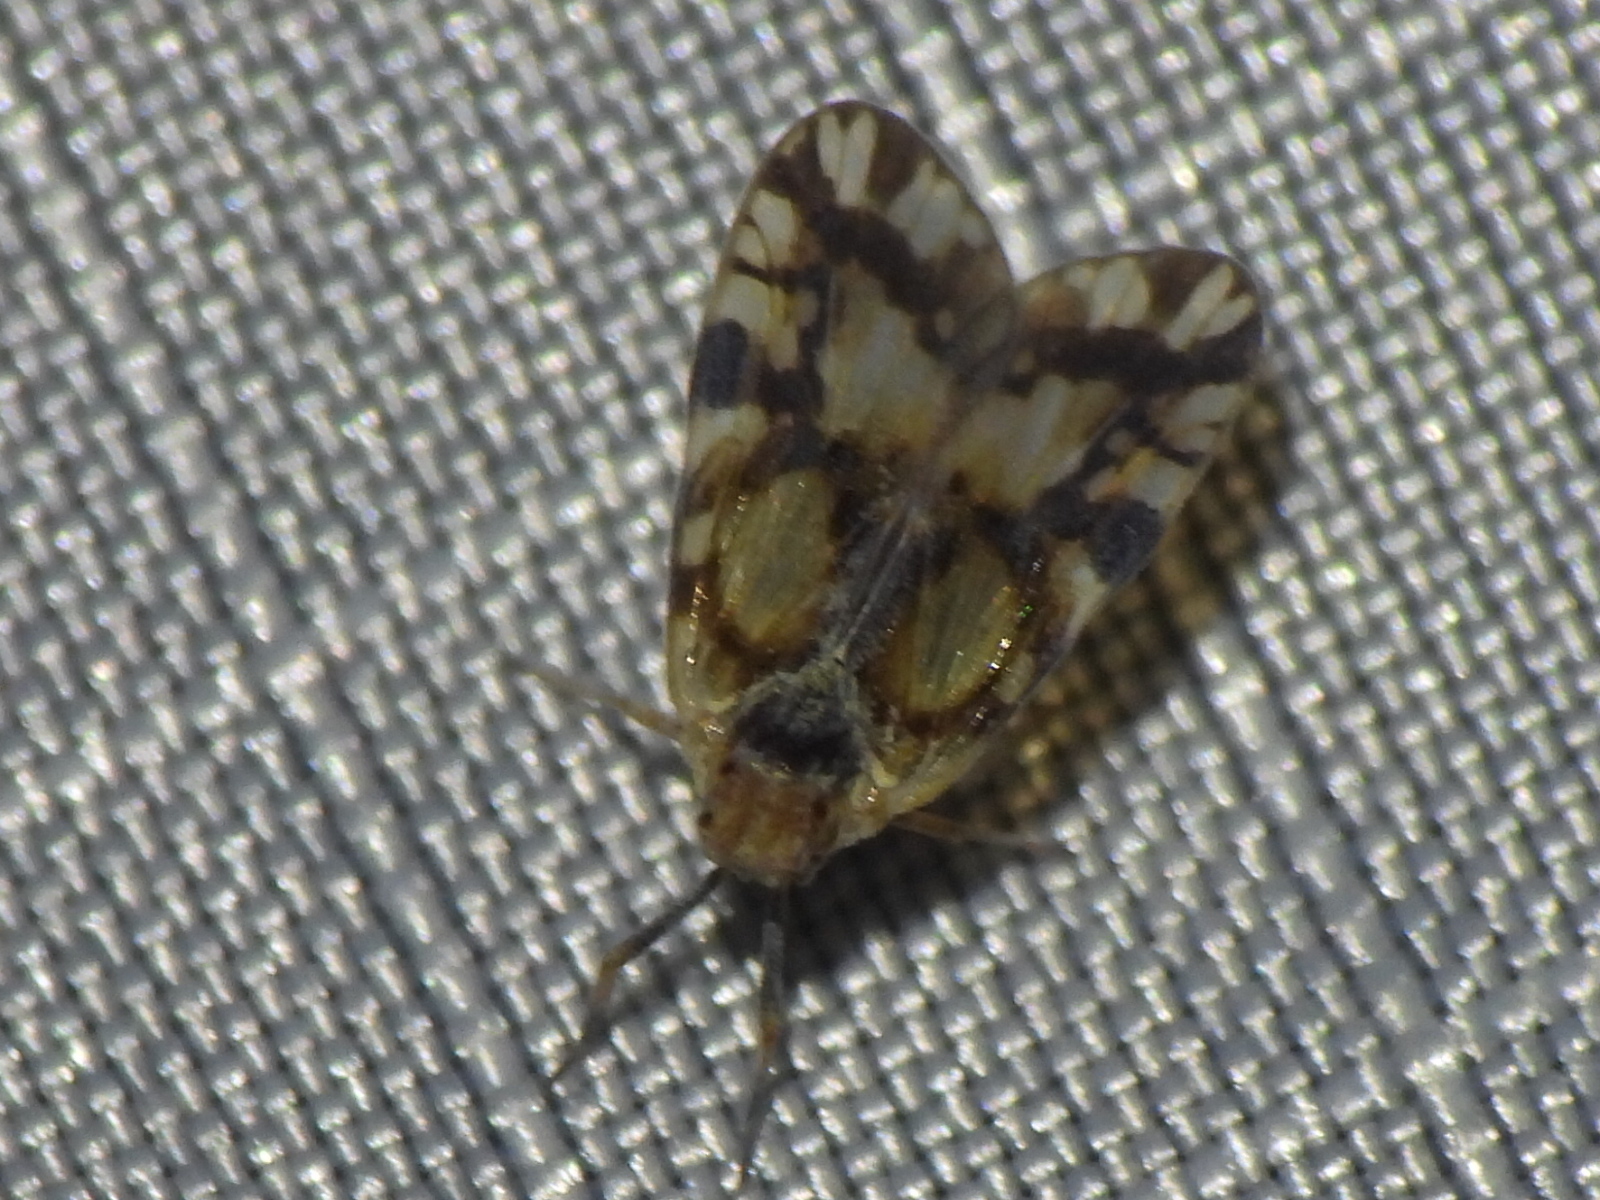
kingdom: Animalia
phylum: Arthropoda
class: Insecta
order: Hemiptera
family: Cixiidae
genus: Bothriocera
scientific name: Bothriocera knulli
